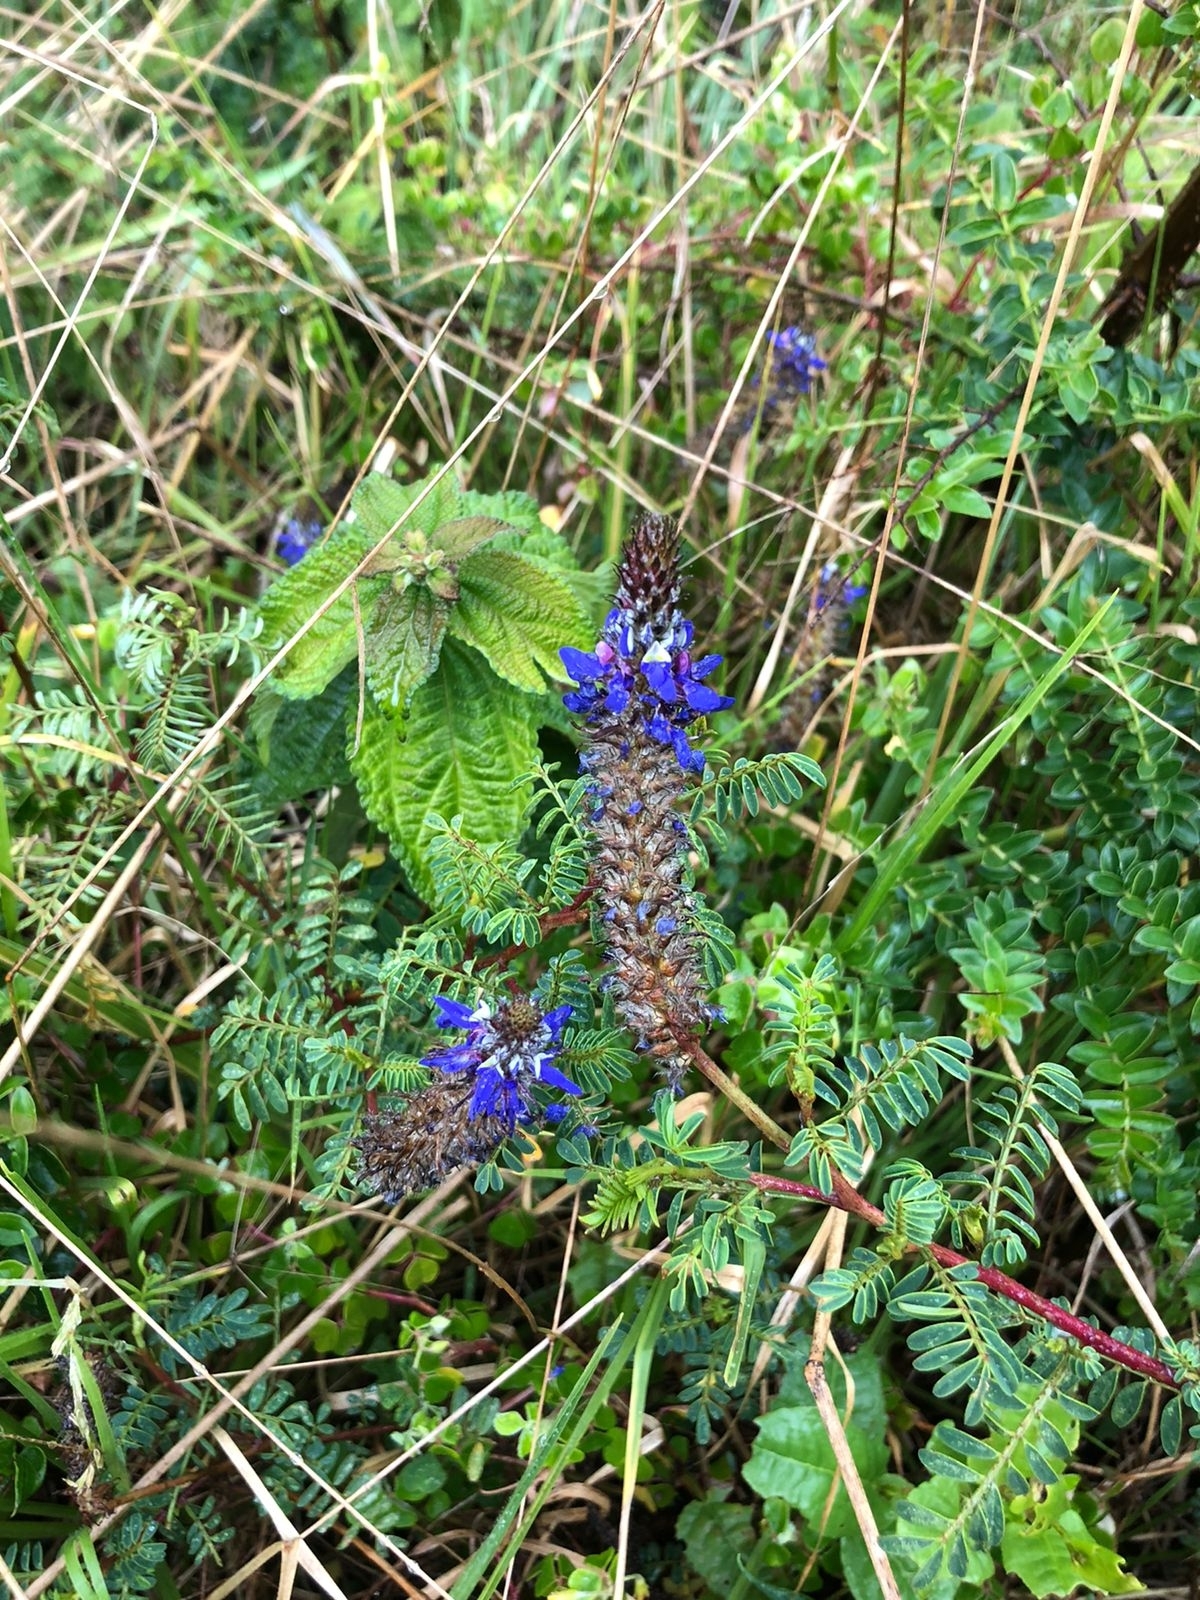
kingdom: Plantae
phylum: Tracheophyta
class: Magnoliopsida
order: Fabales
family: Fabaceae
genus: Dalea
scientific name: Dalea coerulea
